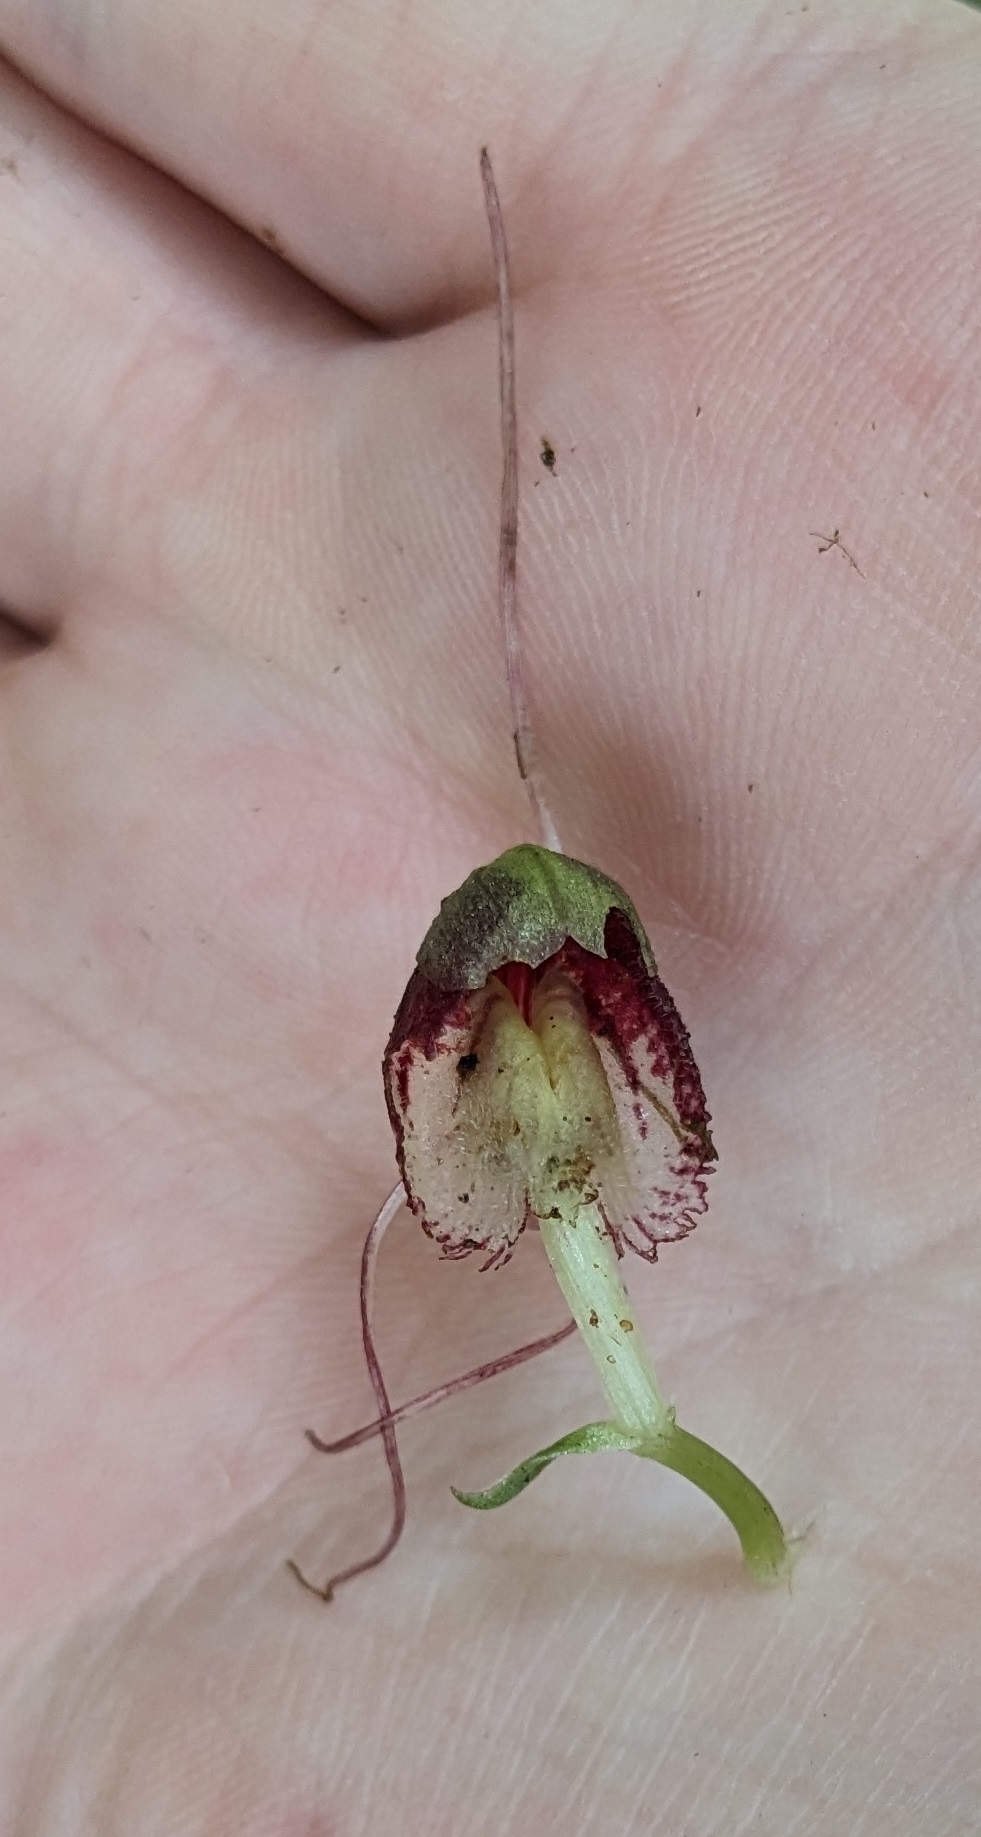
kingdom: Plantae
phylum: Tracheophyta
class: Liliopsida
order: Asparagales
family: Orchidaceae
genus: Corybas
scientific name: Corybas vitreus
